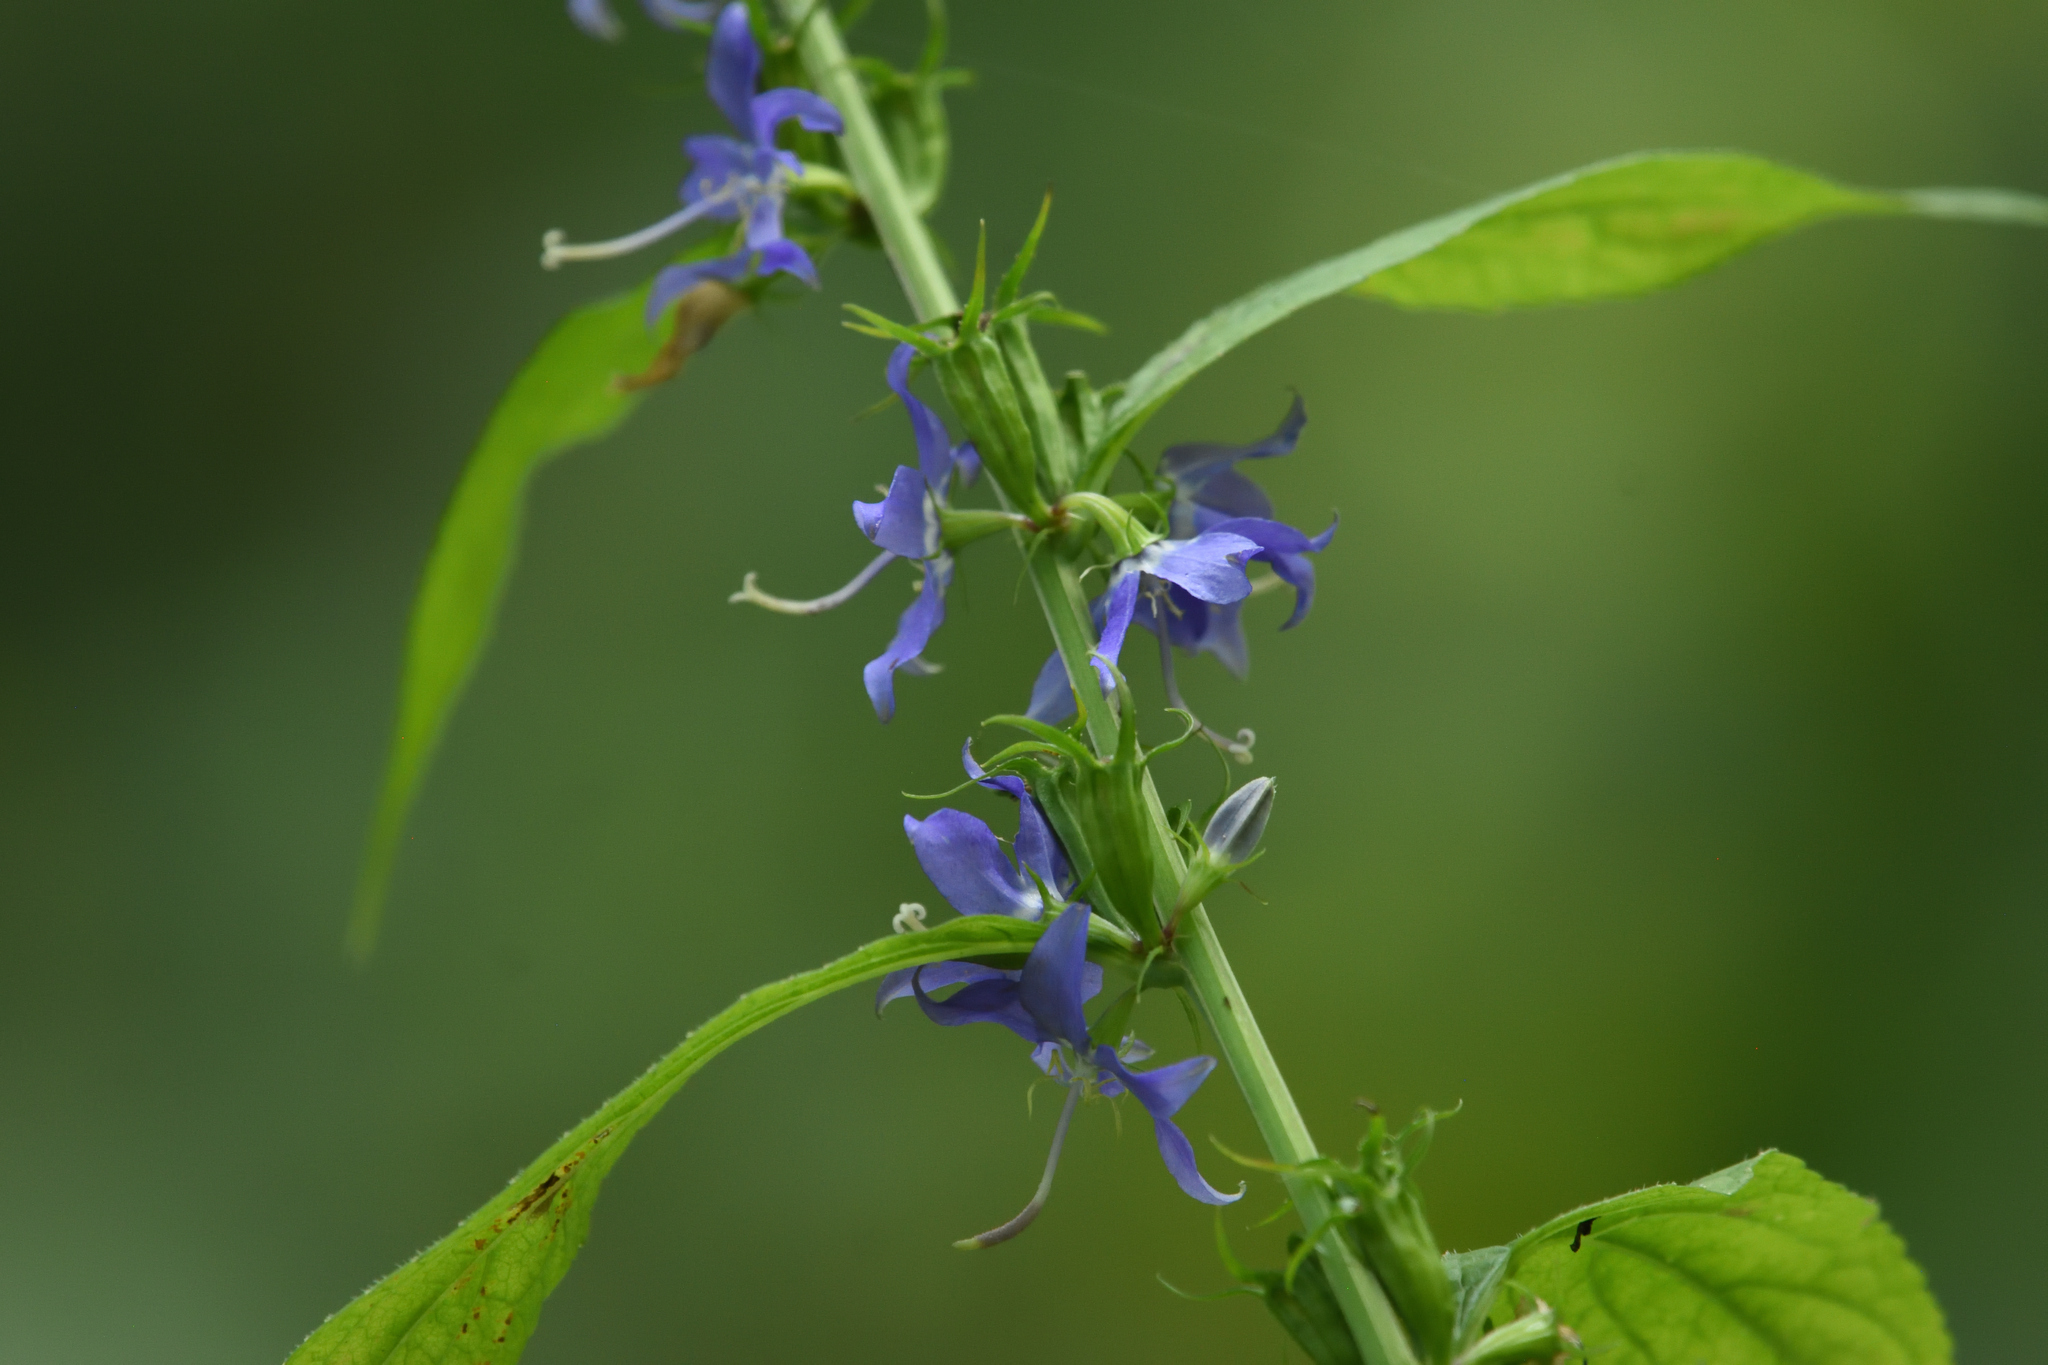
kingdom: Plantae
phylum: Tracheophyta
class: Magnoliopsida
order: Asterales
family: Campanulaceae
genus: Campanulastrum
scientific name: Campanulastrum americanum
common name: American bellflower
